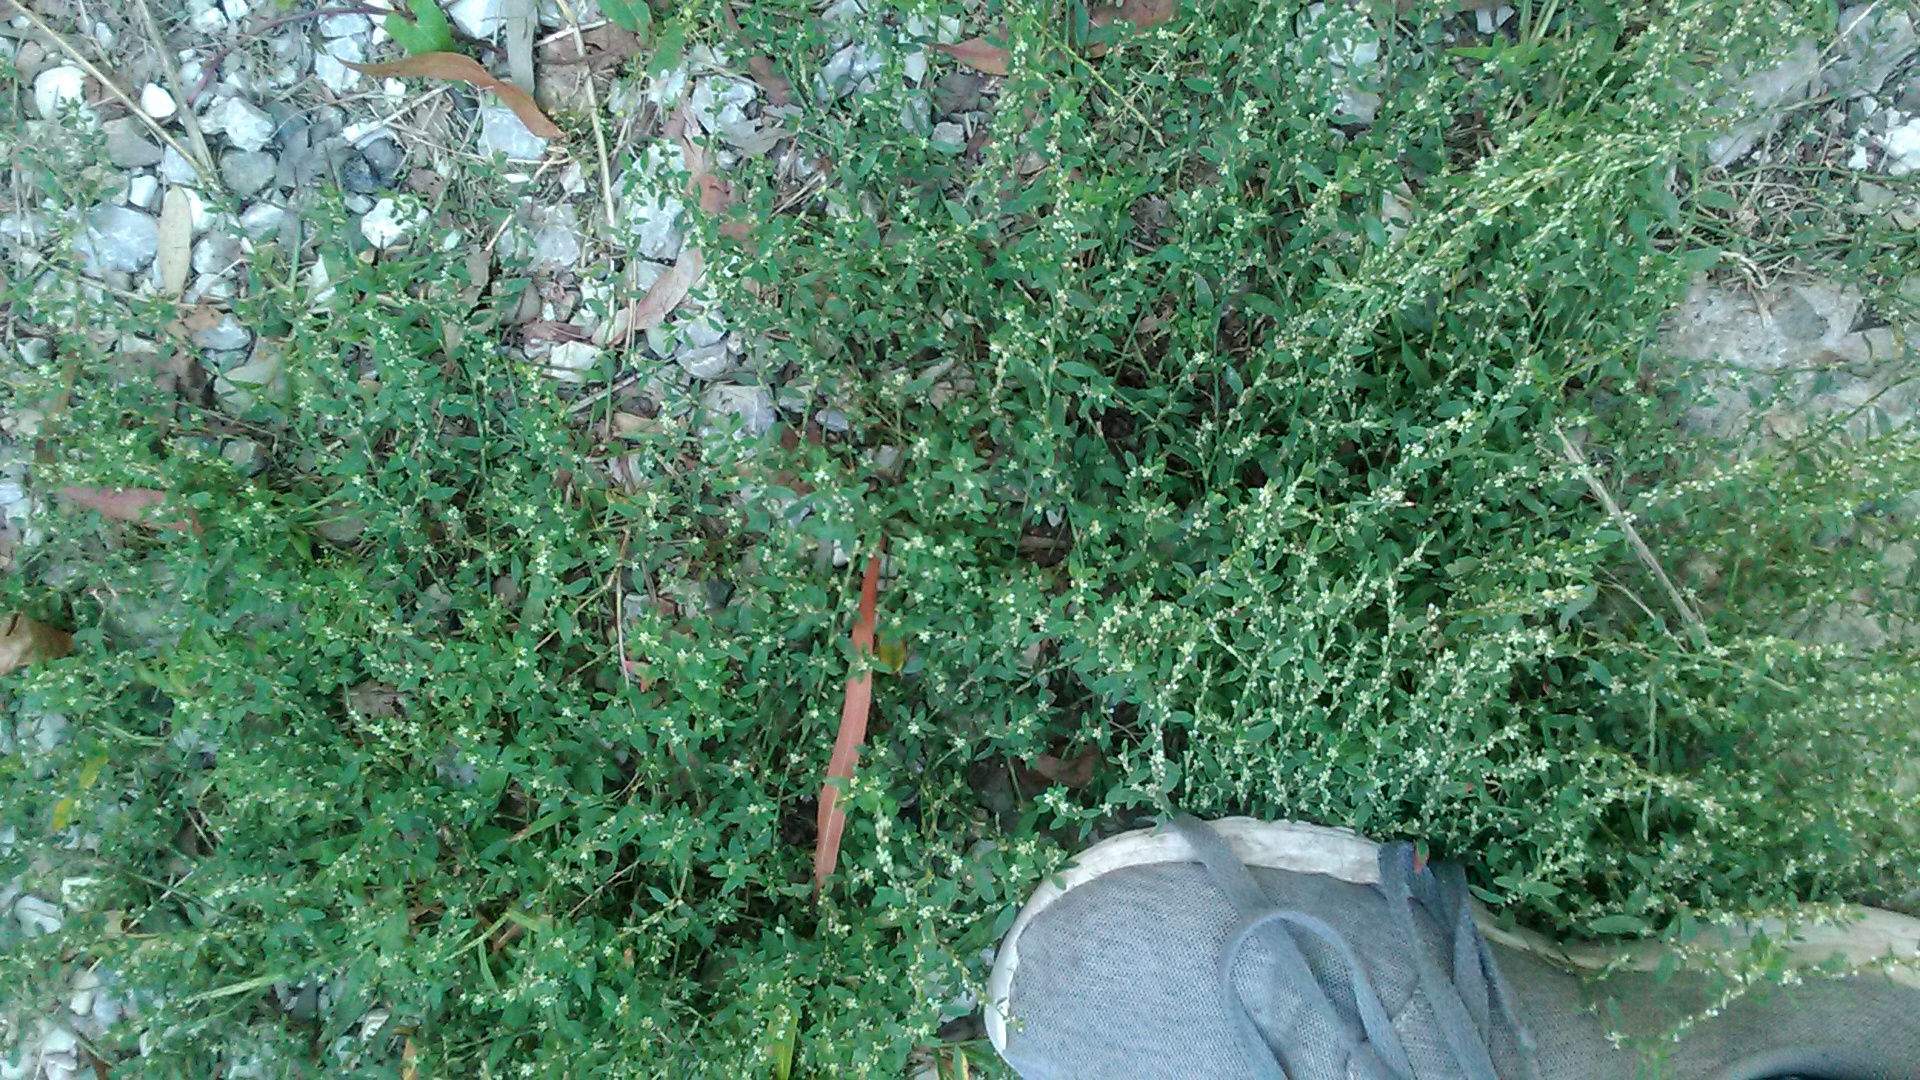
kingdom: Plantae
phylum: Tracheophyta
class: Magnoliopsida
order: Caryophyllales
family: Polygonaceae
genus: Polygonum
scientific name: Polygonum
